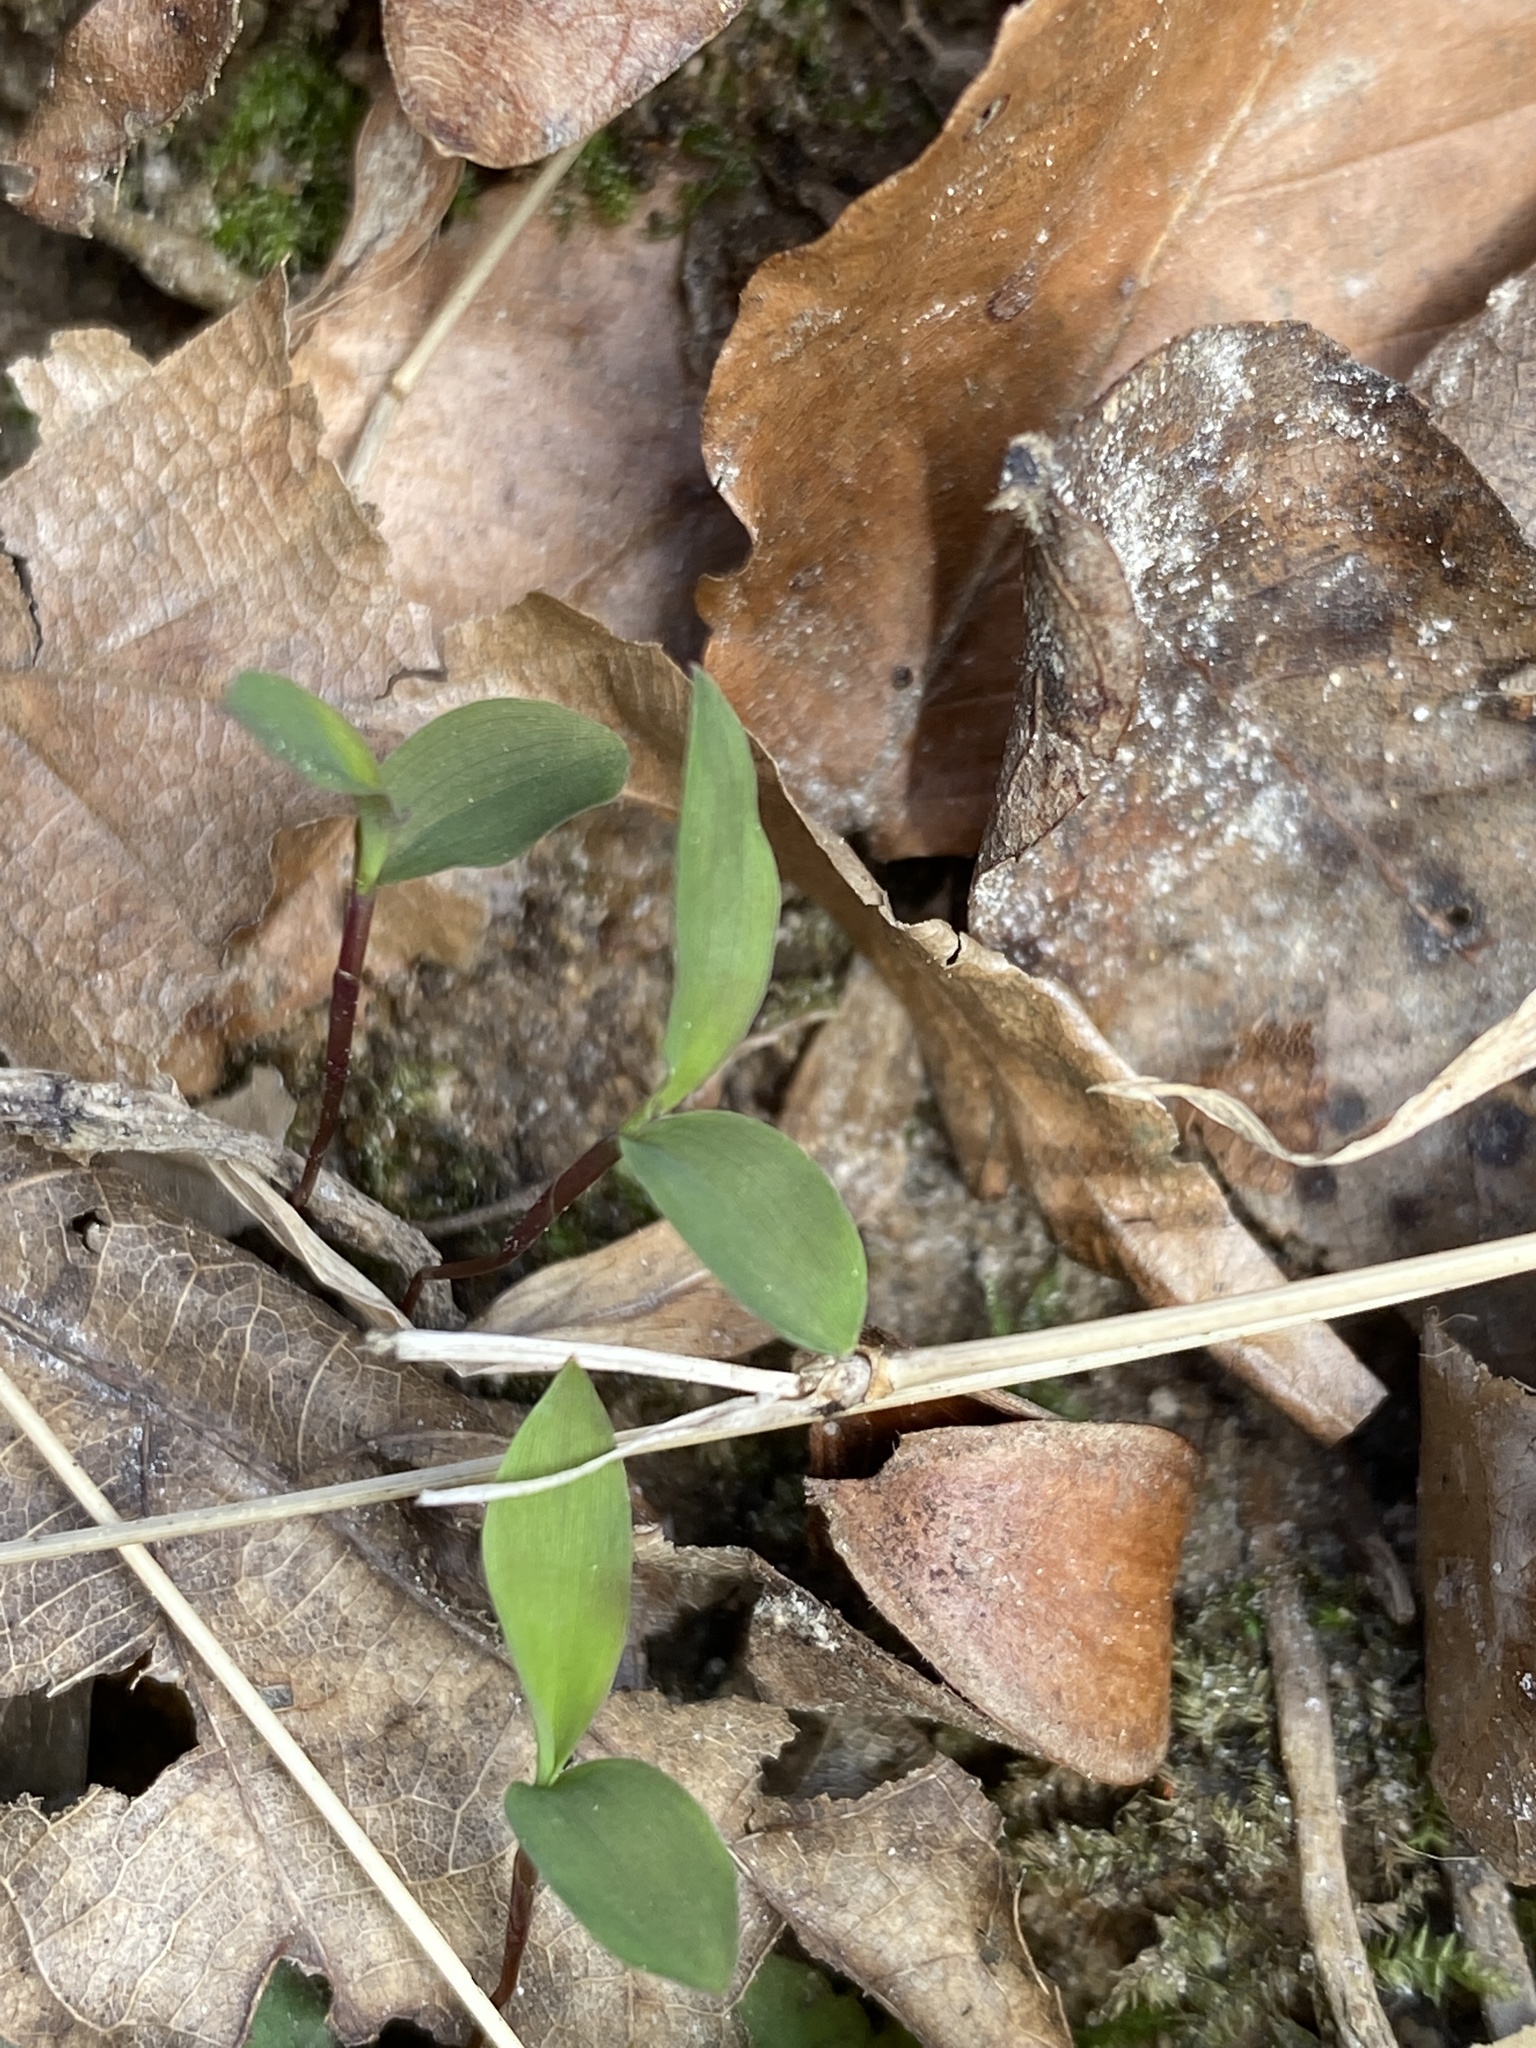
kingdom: Plantae
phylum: Tracheophyta
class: Liliopsida
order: Poales
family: Poaceae
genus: Microstegium
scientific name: Microstegium vimineum
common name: Japanese stiltgrass
